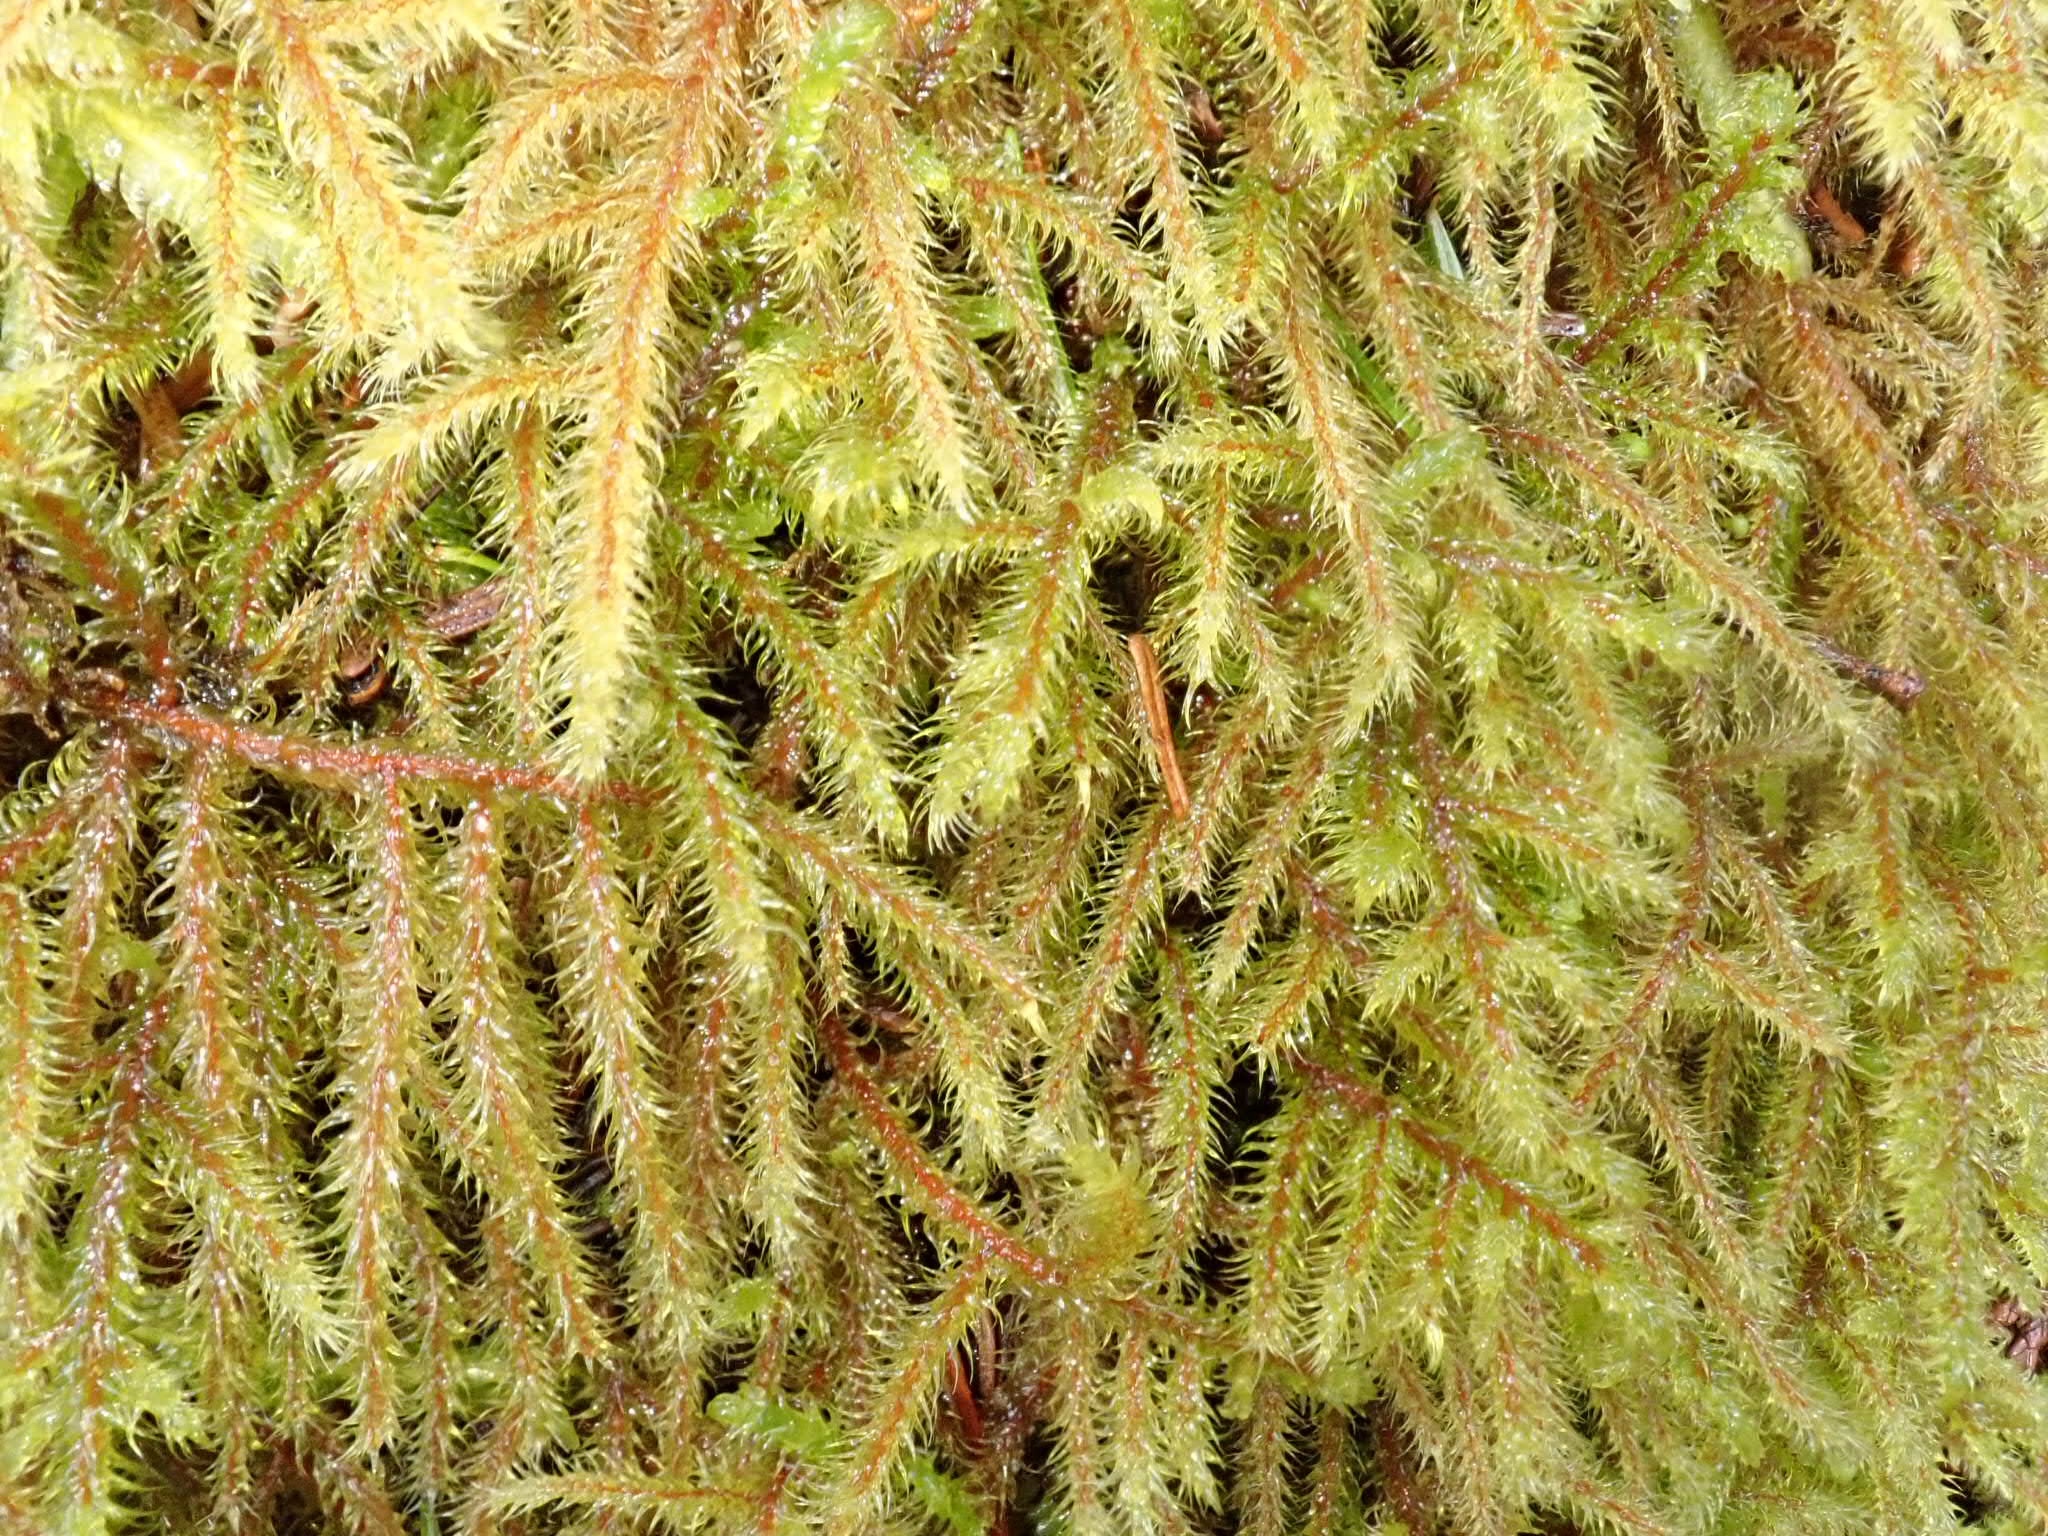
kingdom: Plantae
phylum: Bryophyta
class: Bryopsida
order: Hypnales
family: Hylocomiaceae
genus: Rhytidiadelphus
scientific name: Rhytidiadelphus loreus
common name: Lanky moss
